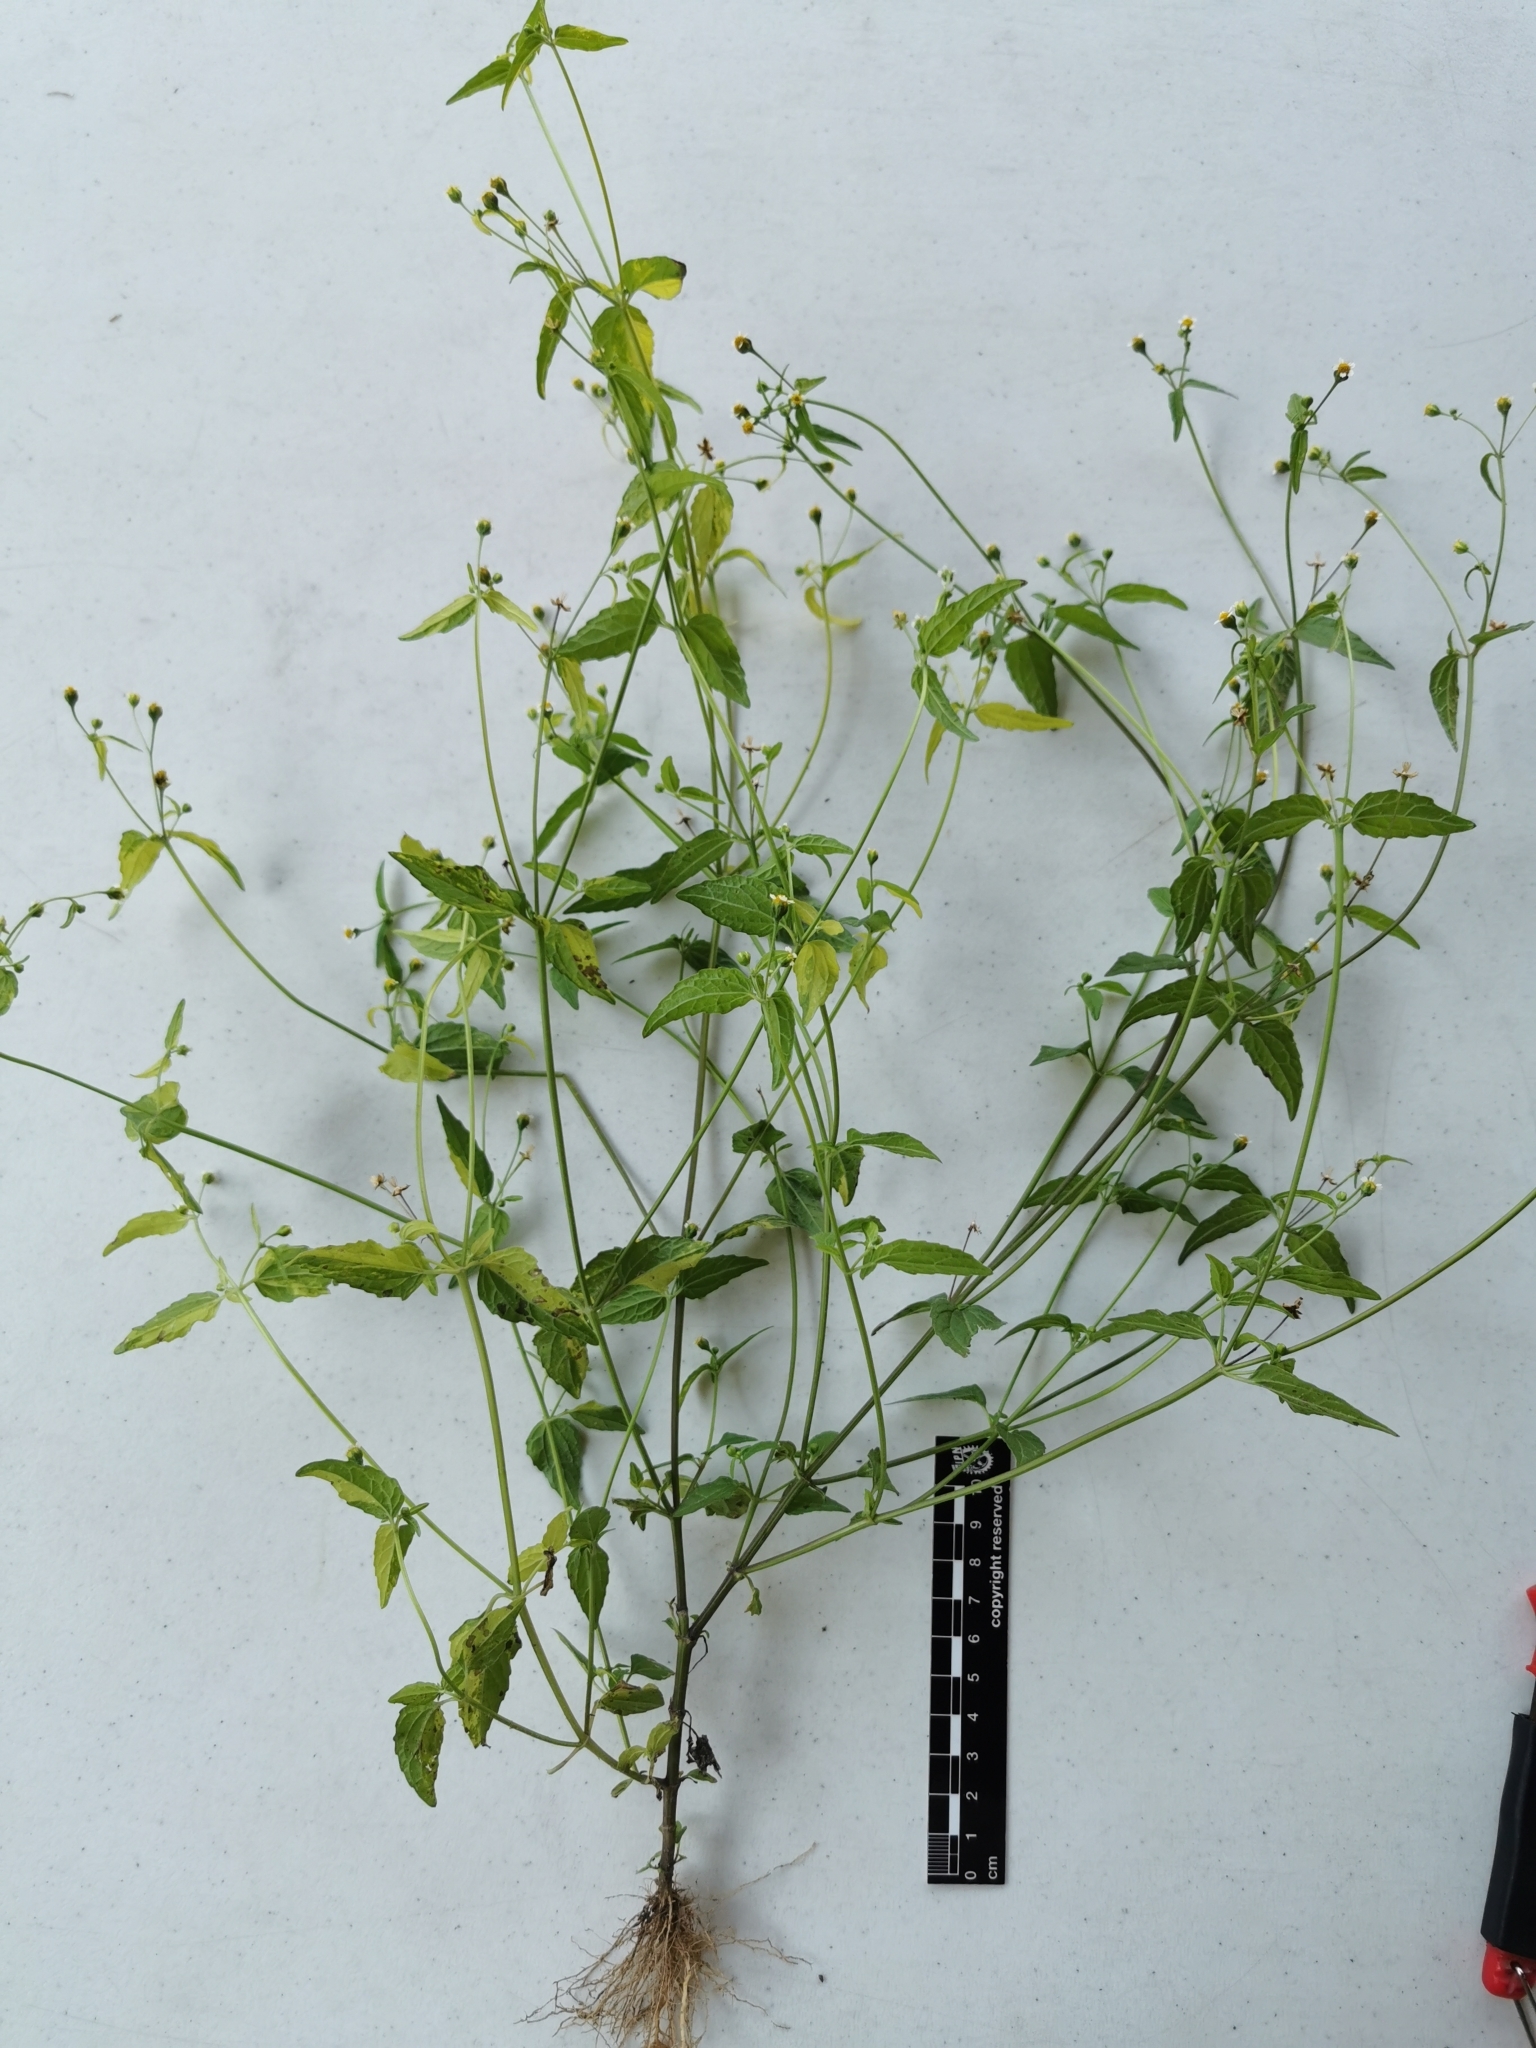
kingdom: Plantae
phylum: Tracheophyta
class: Magnoliopsida
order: Asterales
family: Asteraceae
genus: Galinsoga
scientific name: Galinsoga parviflora
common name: Gallant soldier
